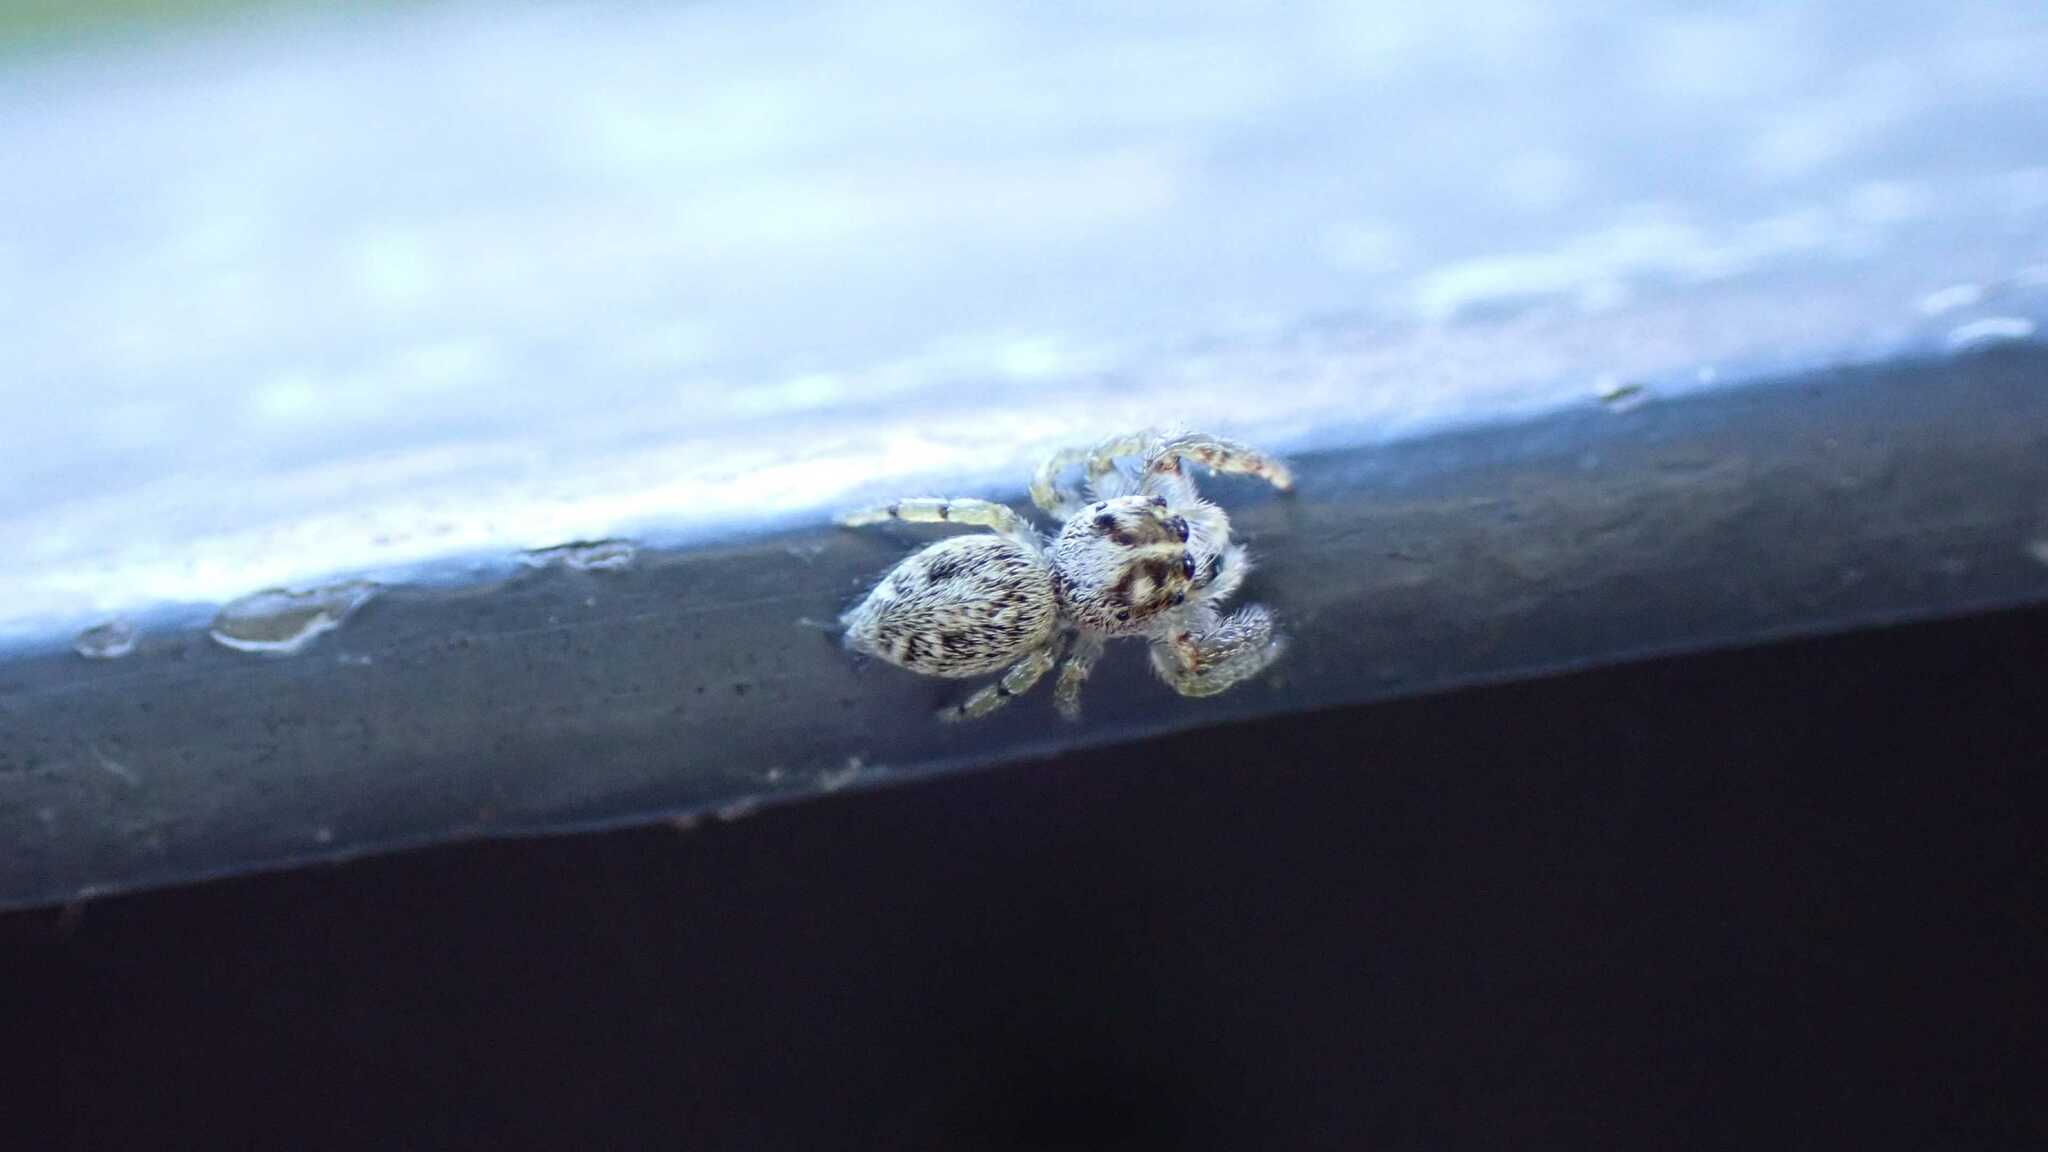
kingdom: Animalia
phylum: Arthropoda
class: Arachnida
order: Araneae
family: Salticidae
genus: Macaroeris
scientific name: Macaroeris nidicolens
